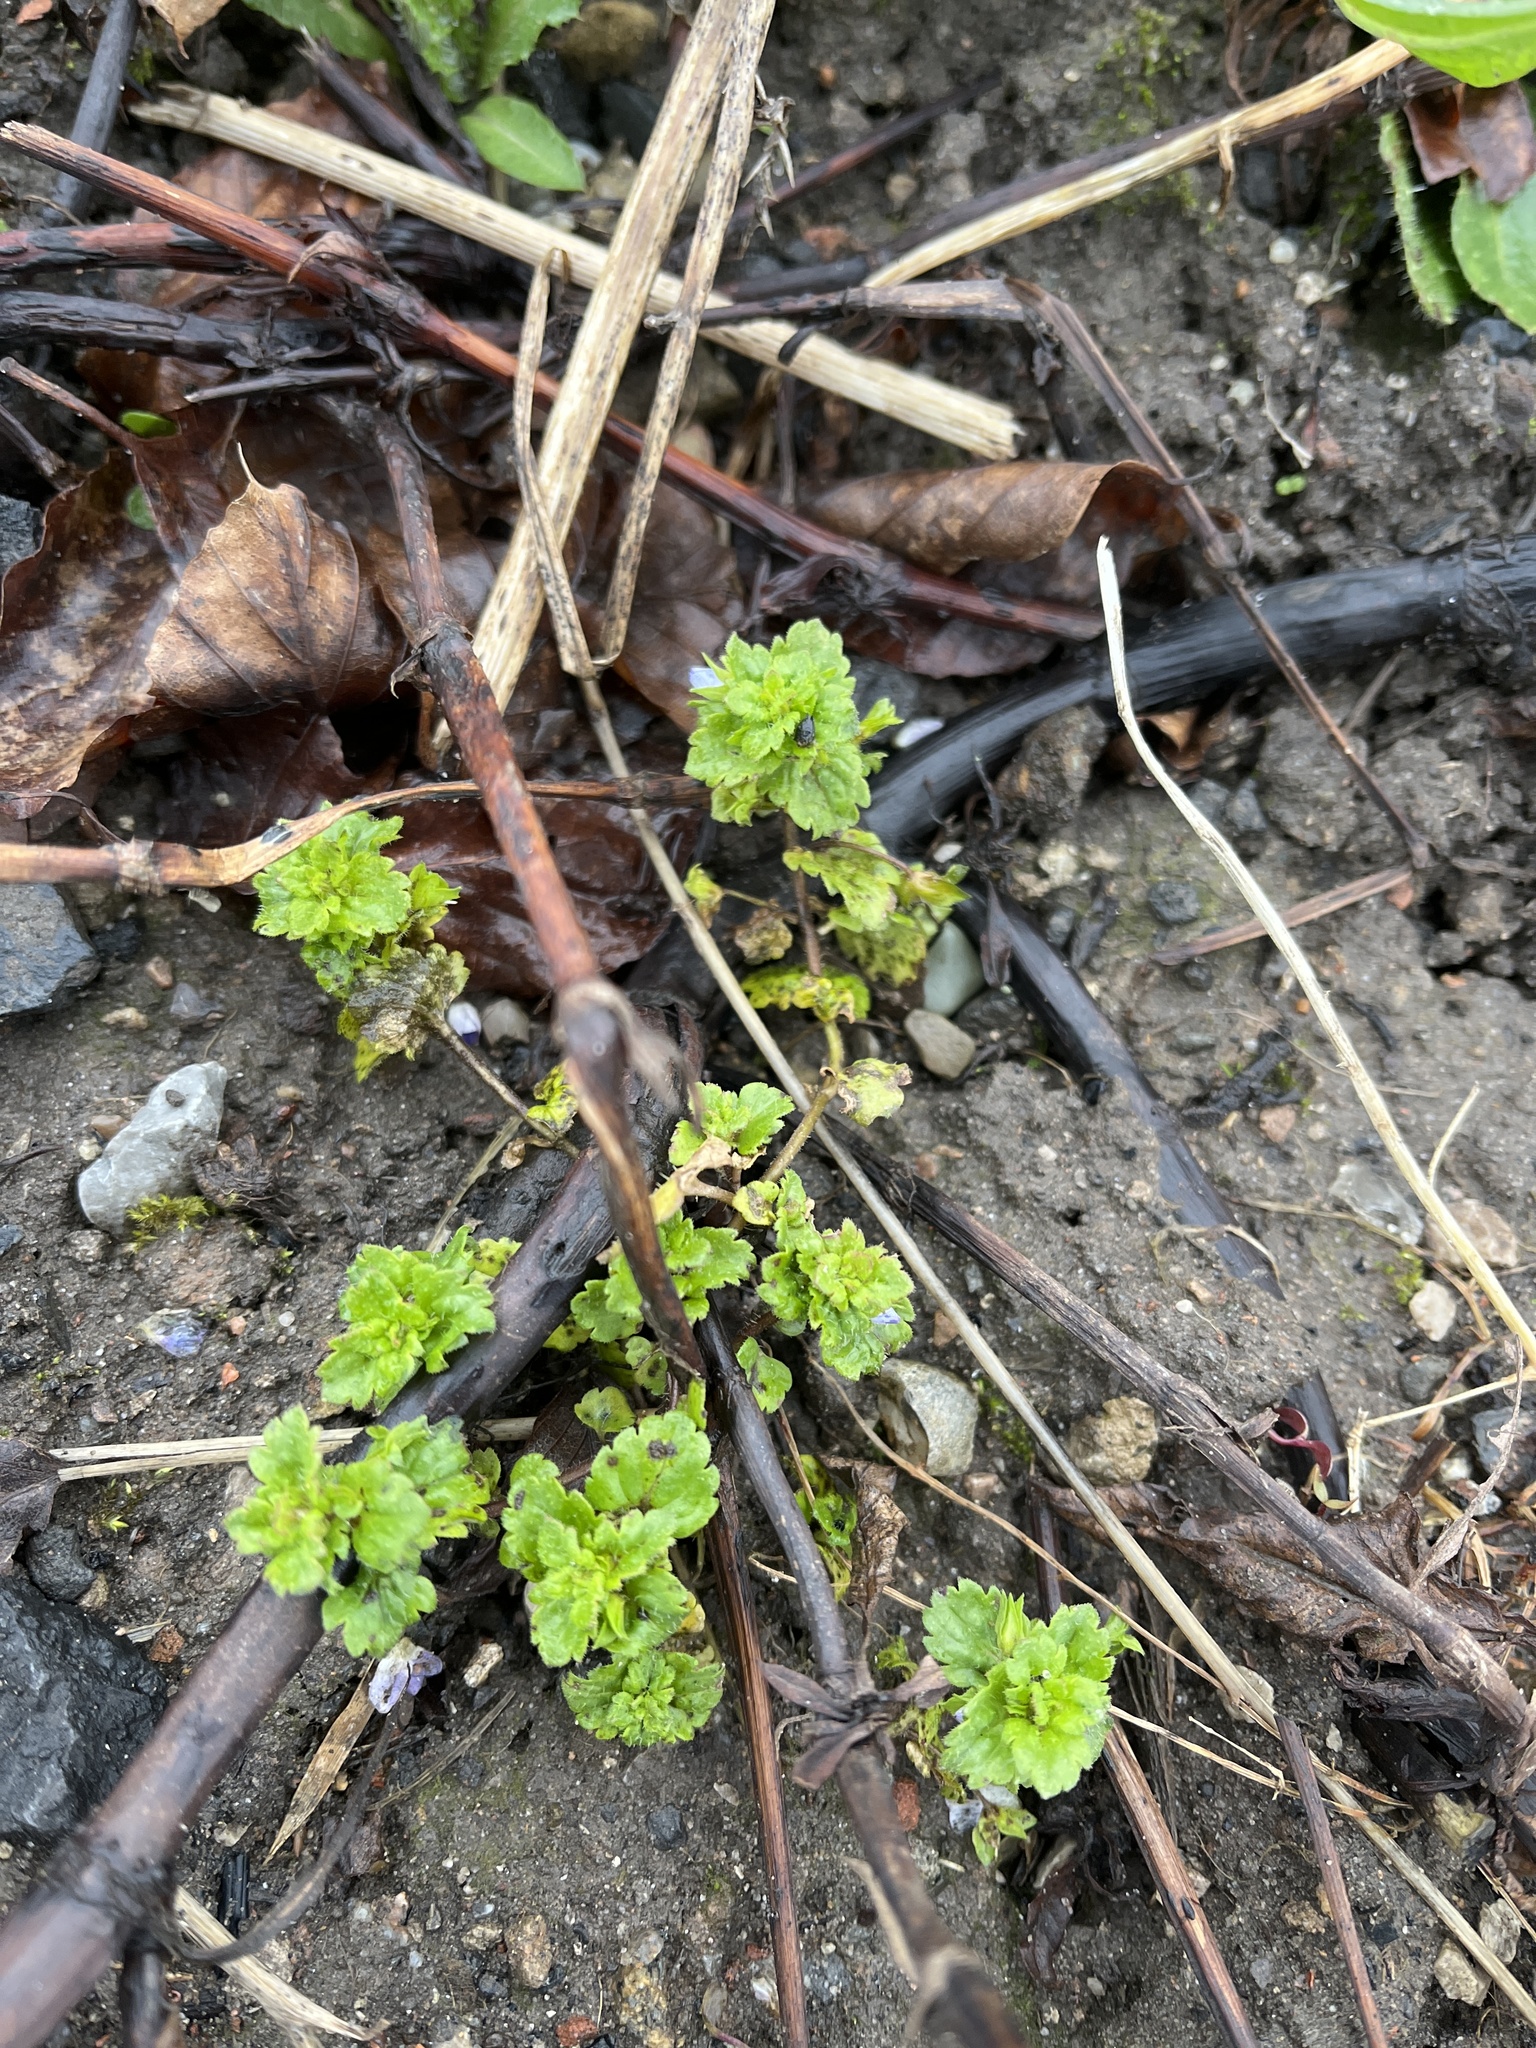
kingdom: Plantae
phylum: Tracheophyta
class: Magnoliopsida
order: Lamiales
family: Plantaginaceae
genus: Veronica
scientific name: Veronica persica
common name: Common field-speedwell
